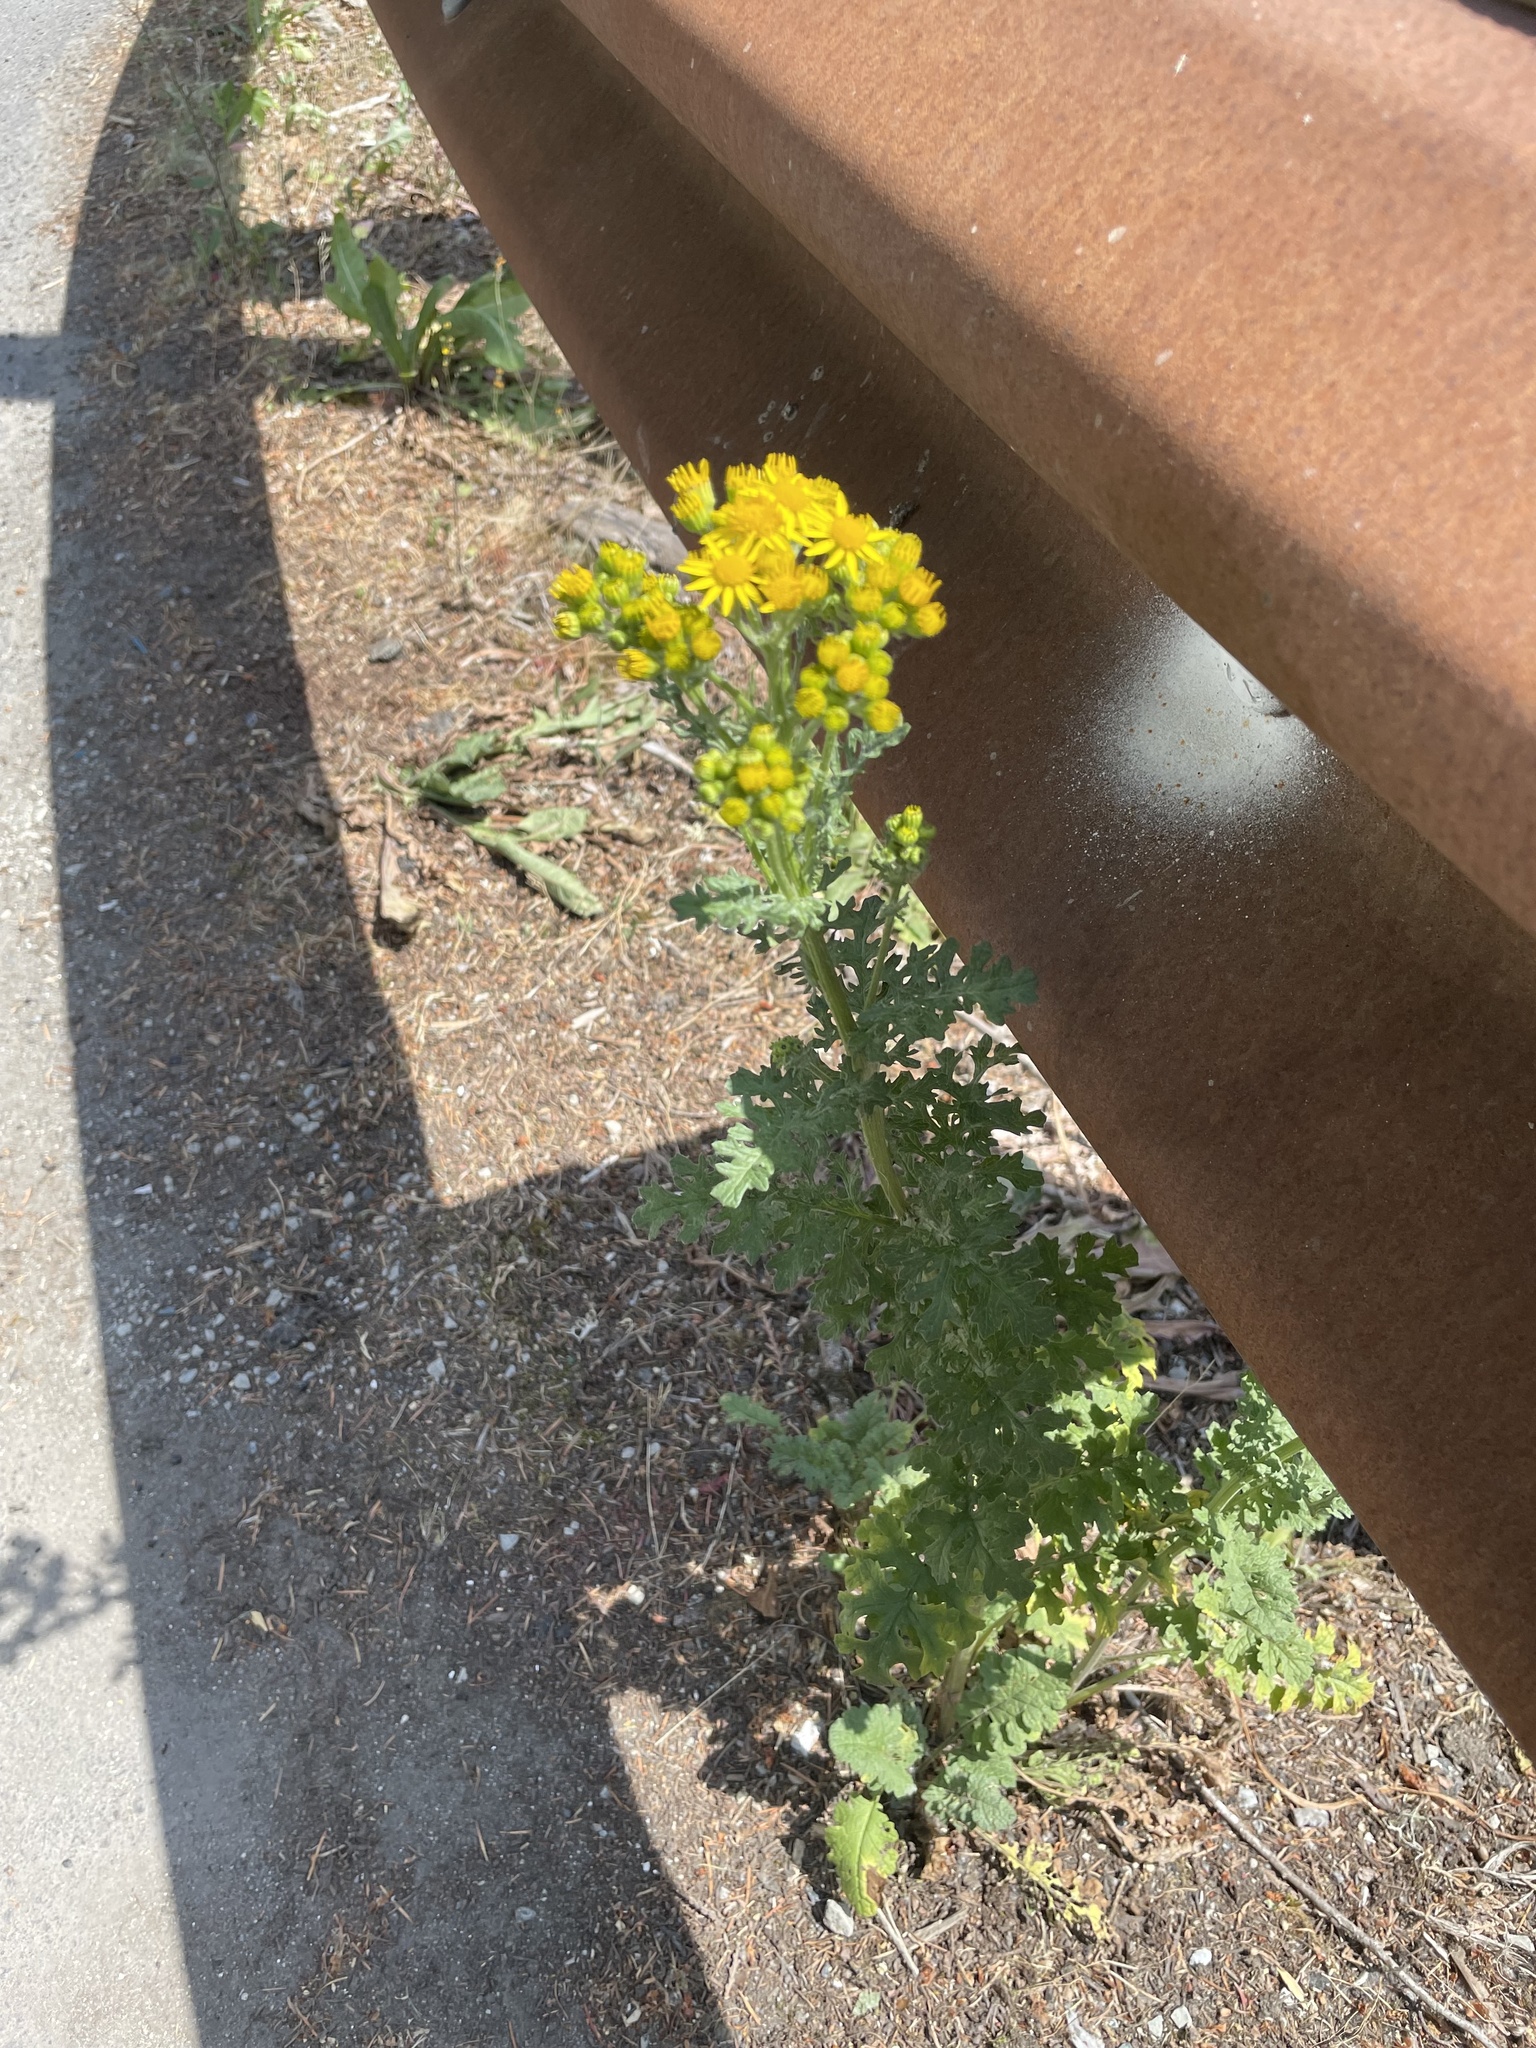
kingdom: Plantae
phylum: Tracheophyta
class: Magnoliopsida
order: Asterales
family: Asteraceae
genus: Jacobaea
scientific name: Jacobaea vulgaris
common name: Stinking willie
